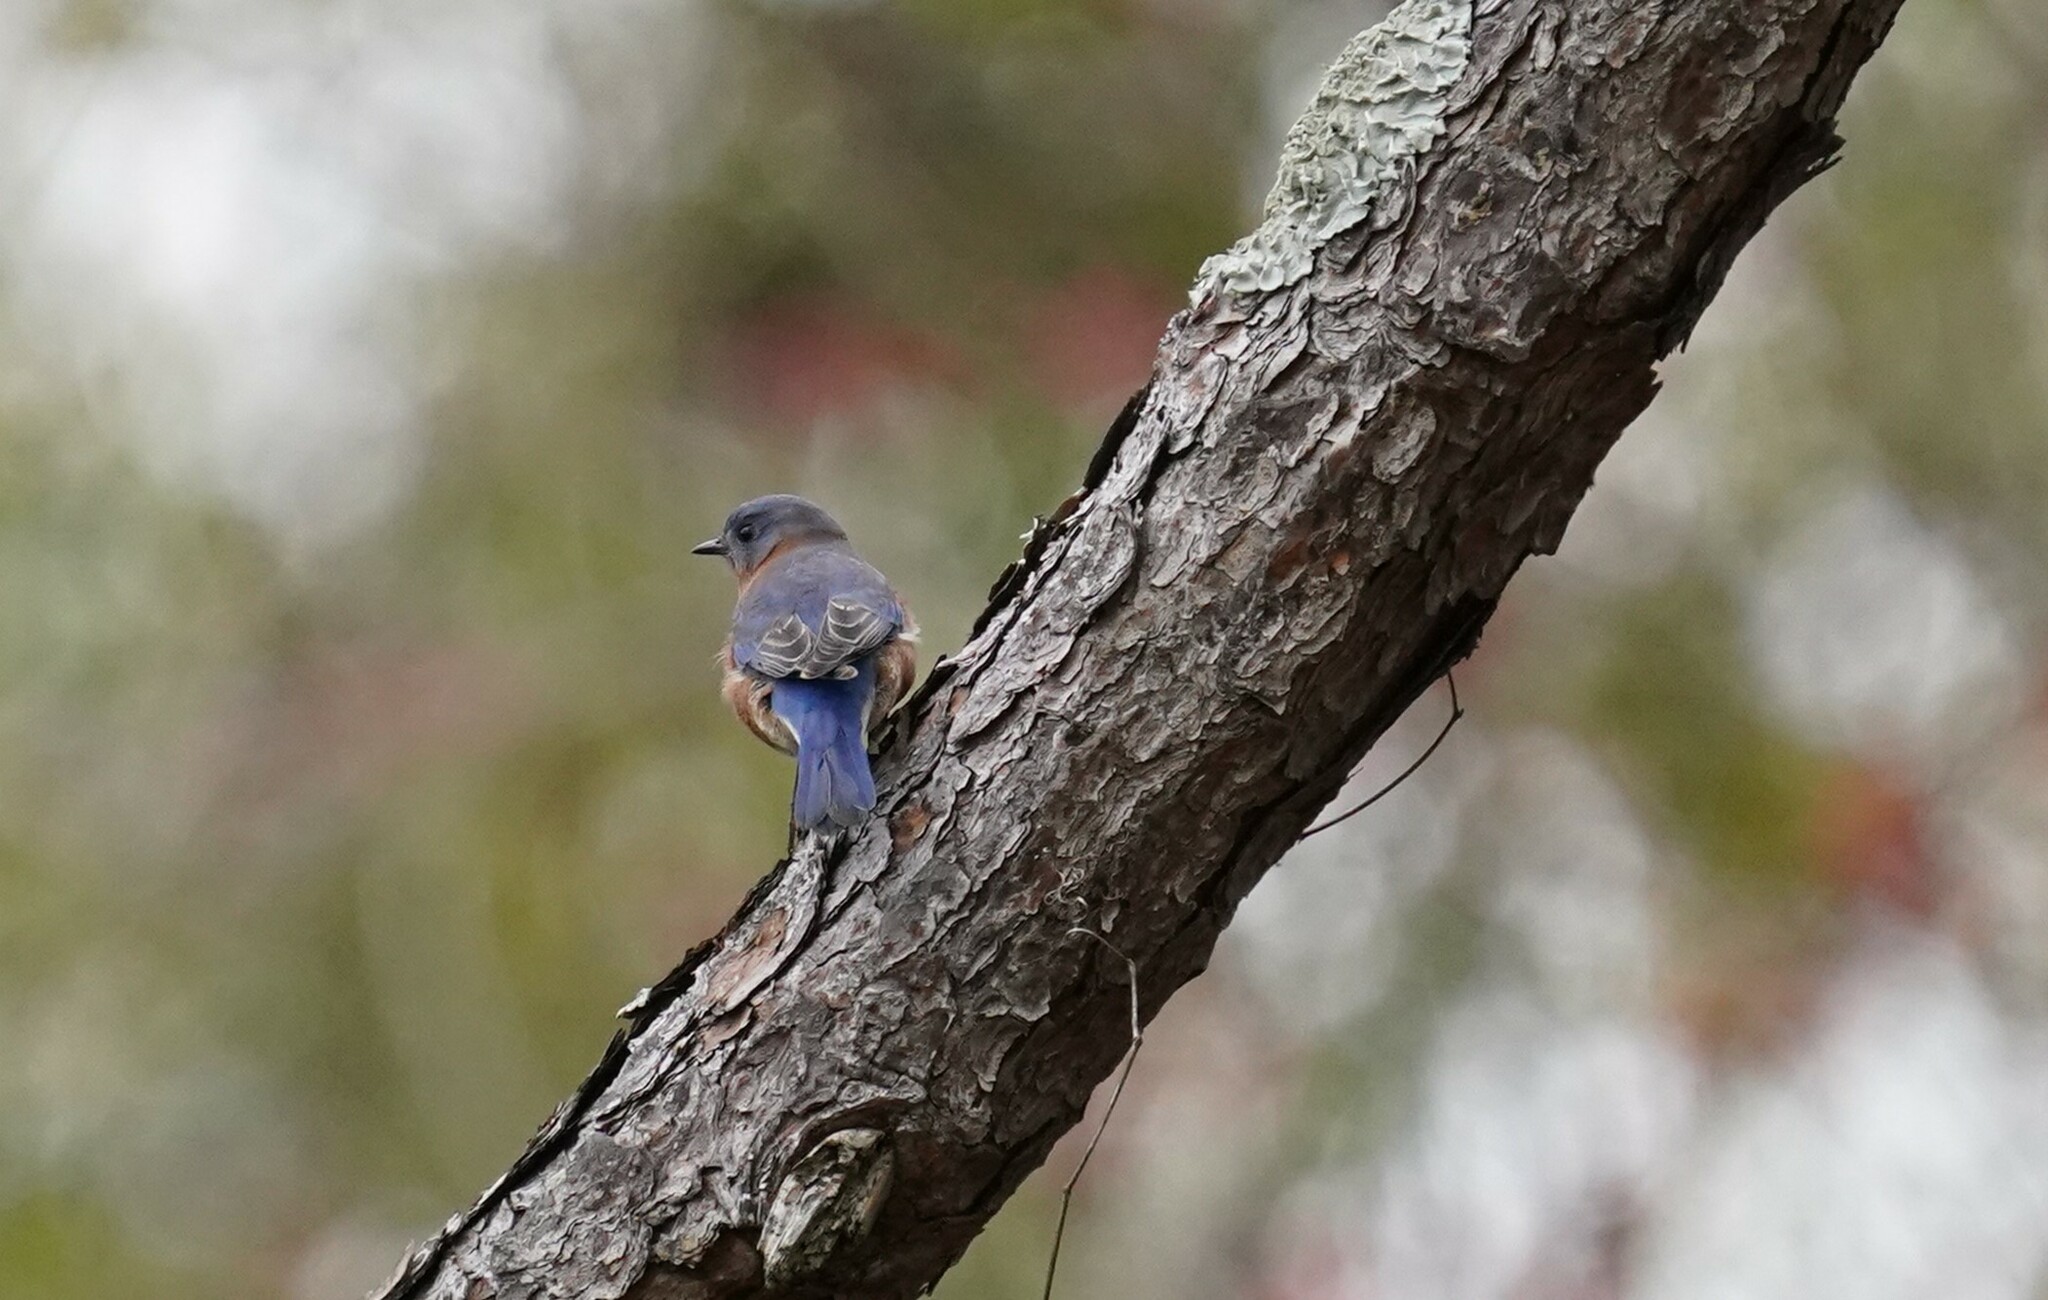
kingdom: Animalia
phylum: Chordata
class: Aves
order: Passeriformes
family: Turdidae
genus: Sialia
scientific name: Sialia sialis
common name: Eastern bluebird
